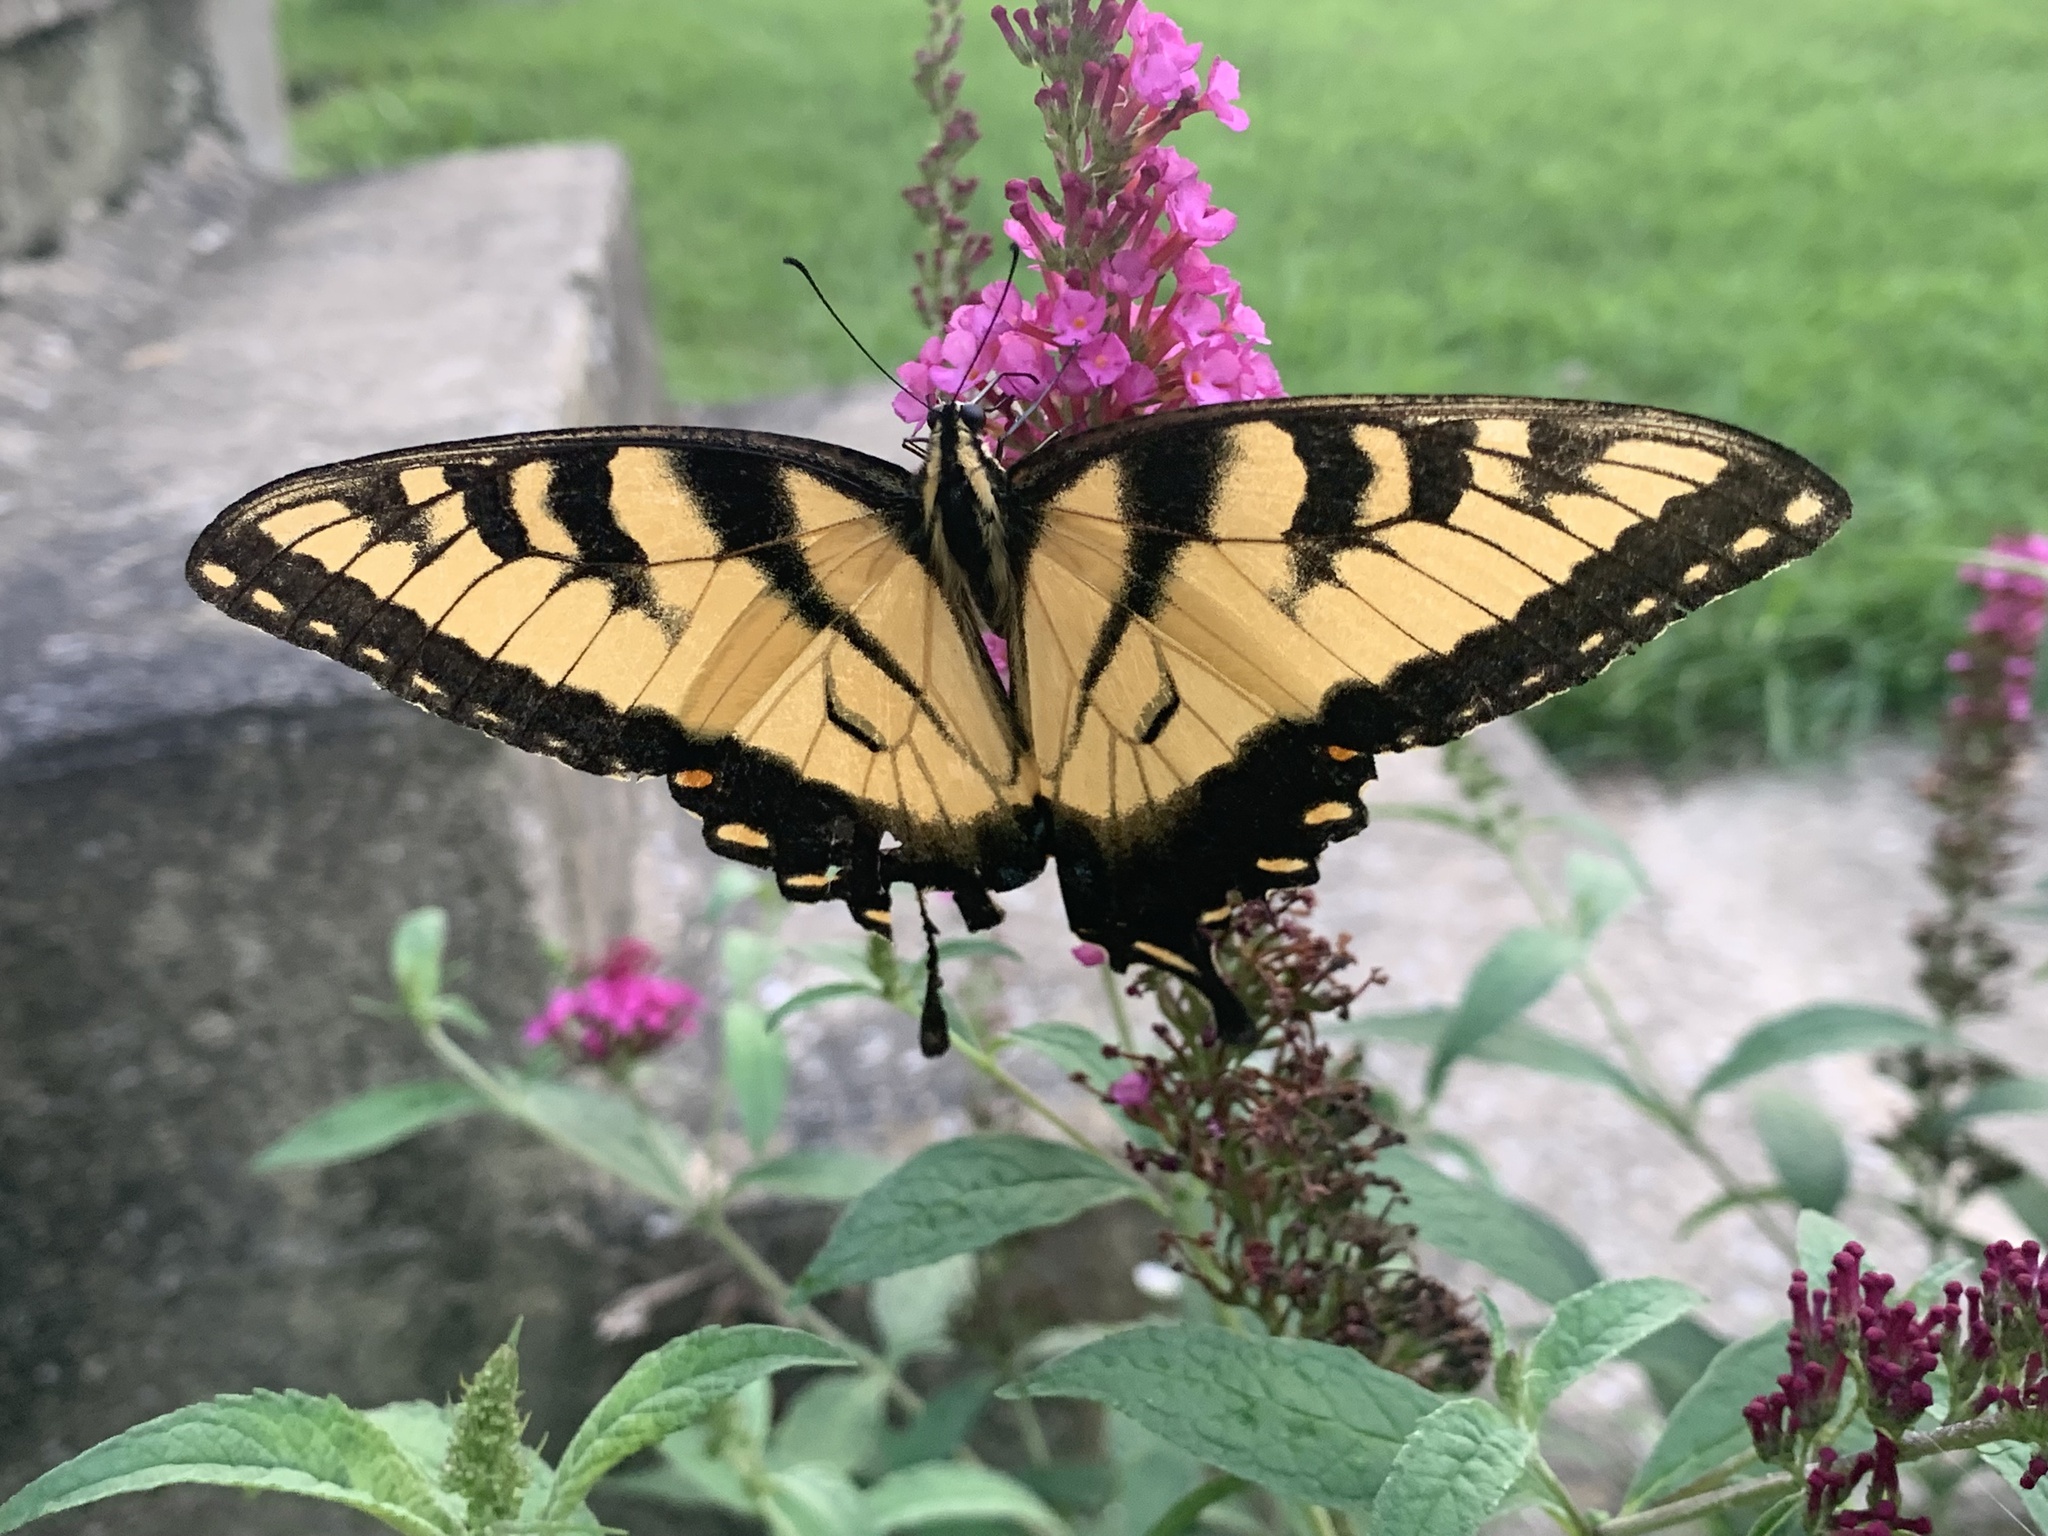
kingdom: Animalia
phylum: Arthropoda
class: Insecta
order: Lepidoptera
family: Papilionidae
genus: Papilio
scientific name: Papilio glaucus
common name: Tiger swallowtail
